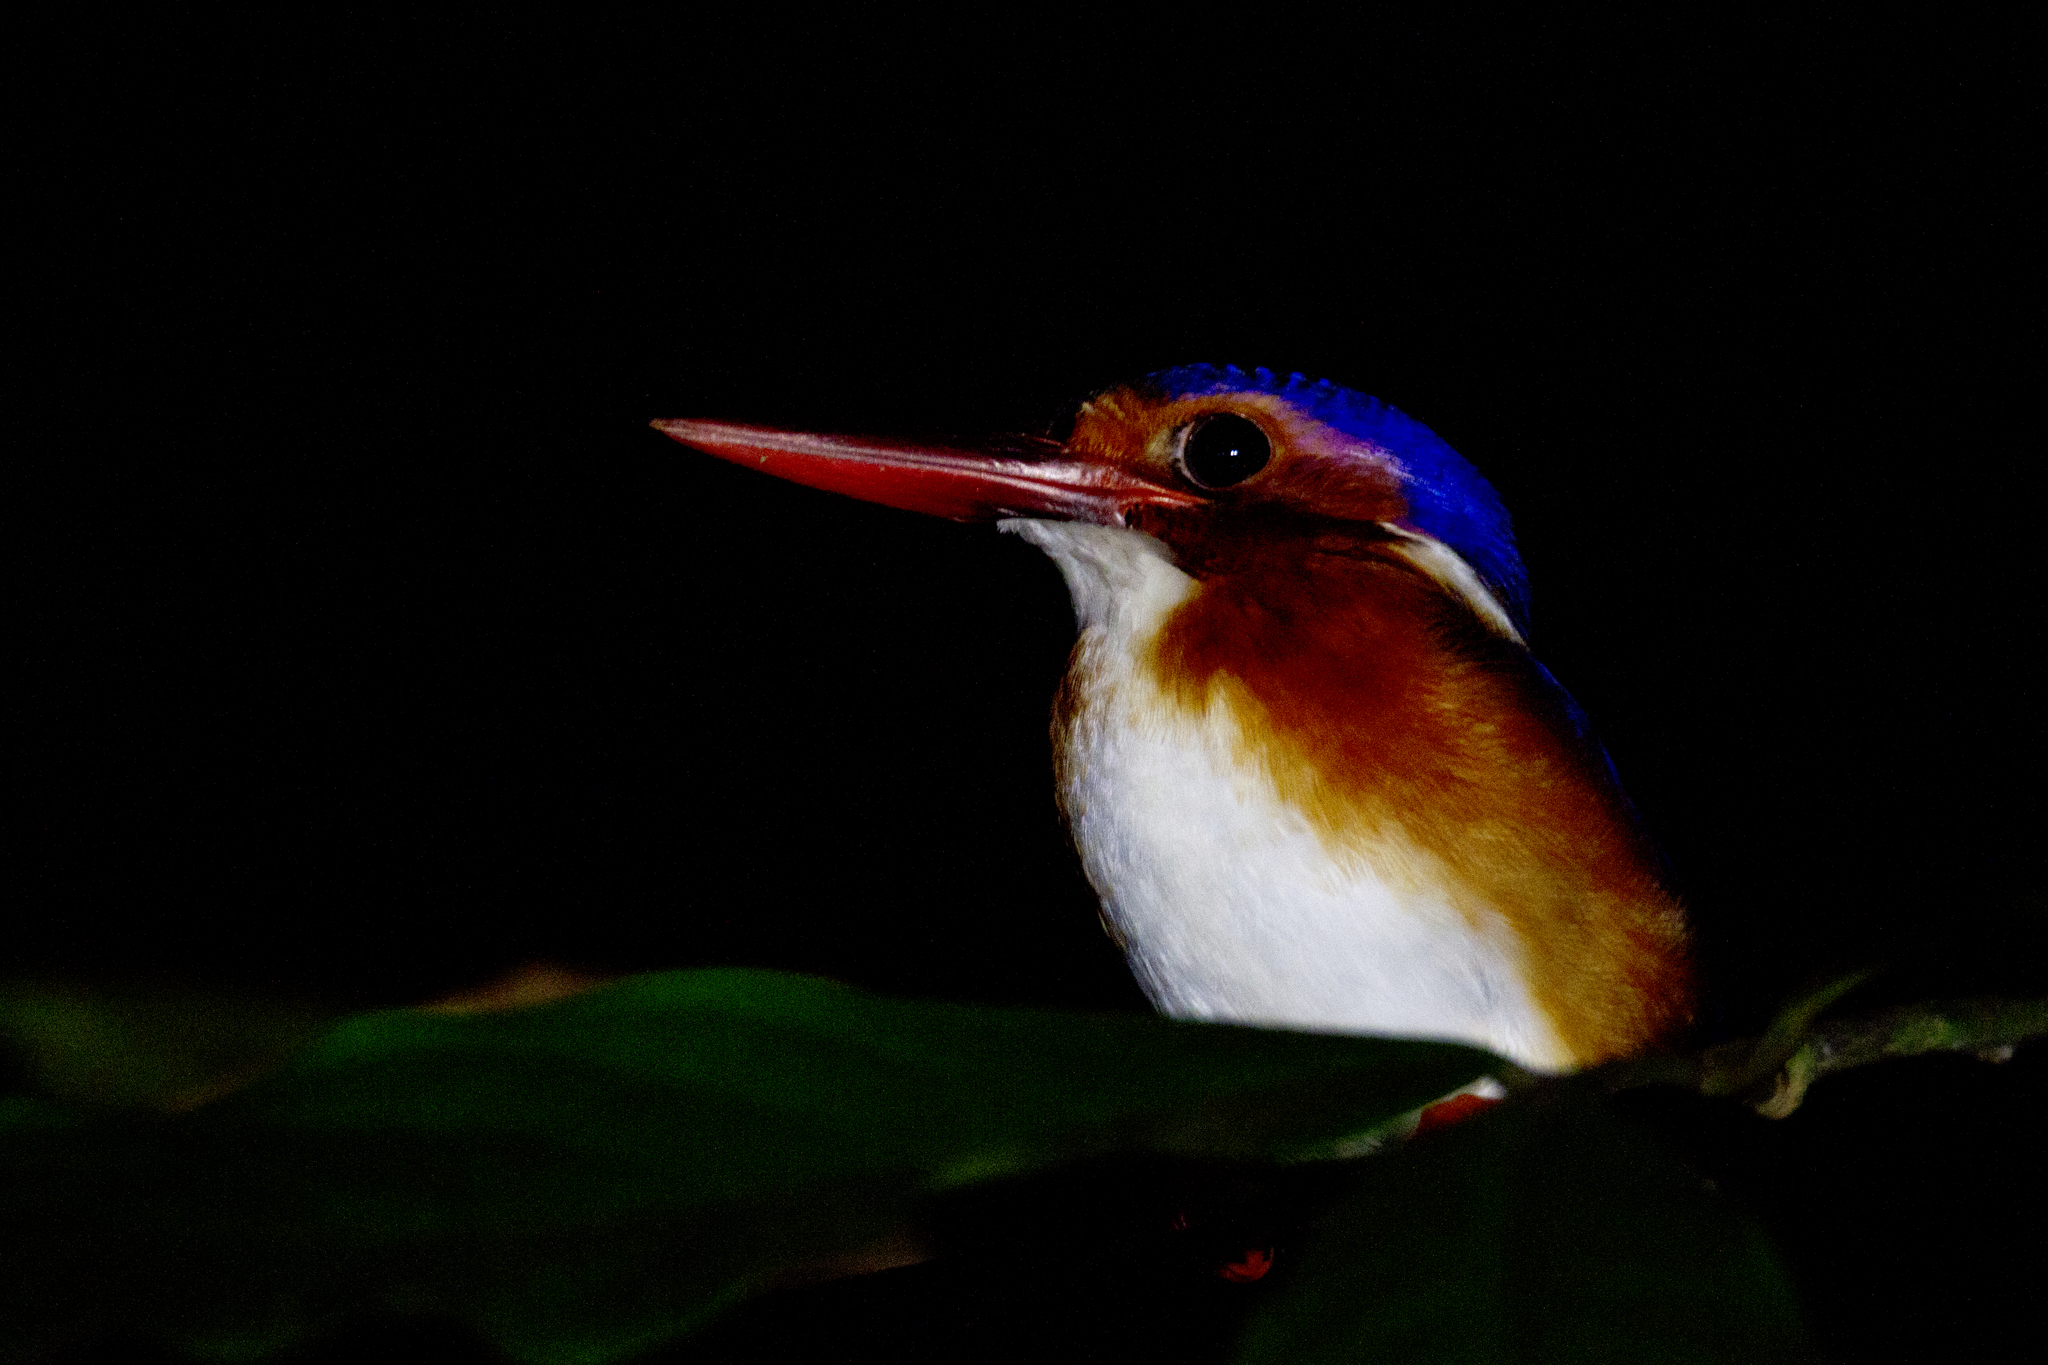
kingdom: Animalia
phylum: Chordata
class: Aves
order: Coraciiformes
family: Alcedinidae
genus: Corythornis
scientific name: Corythornis leucogaster
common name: White-bellied kingfisher
